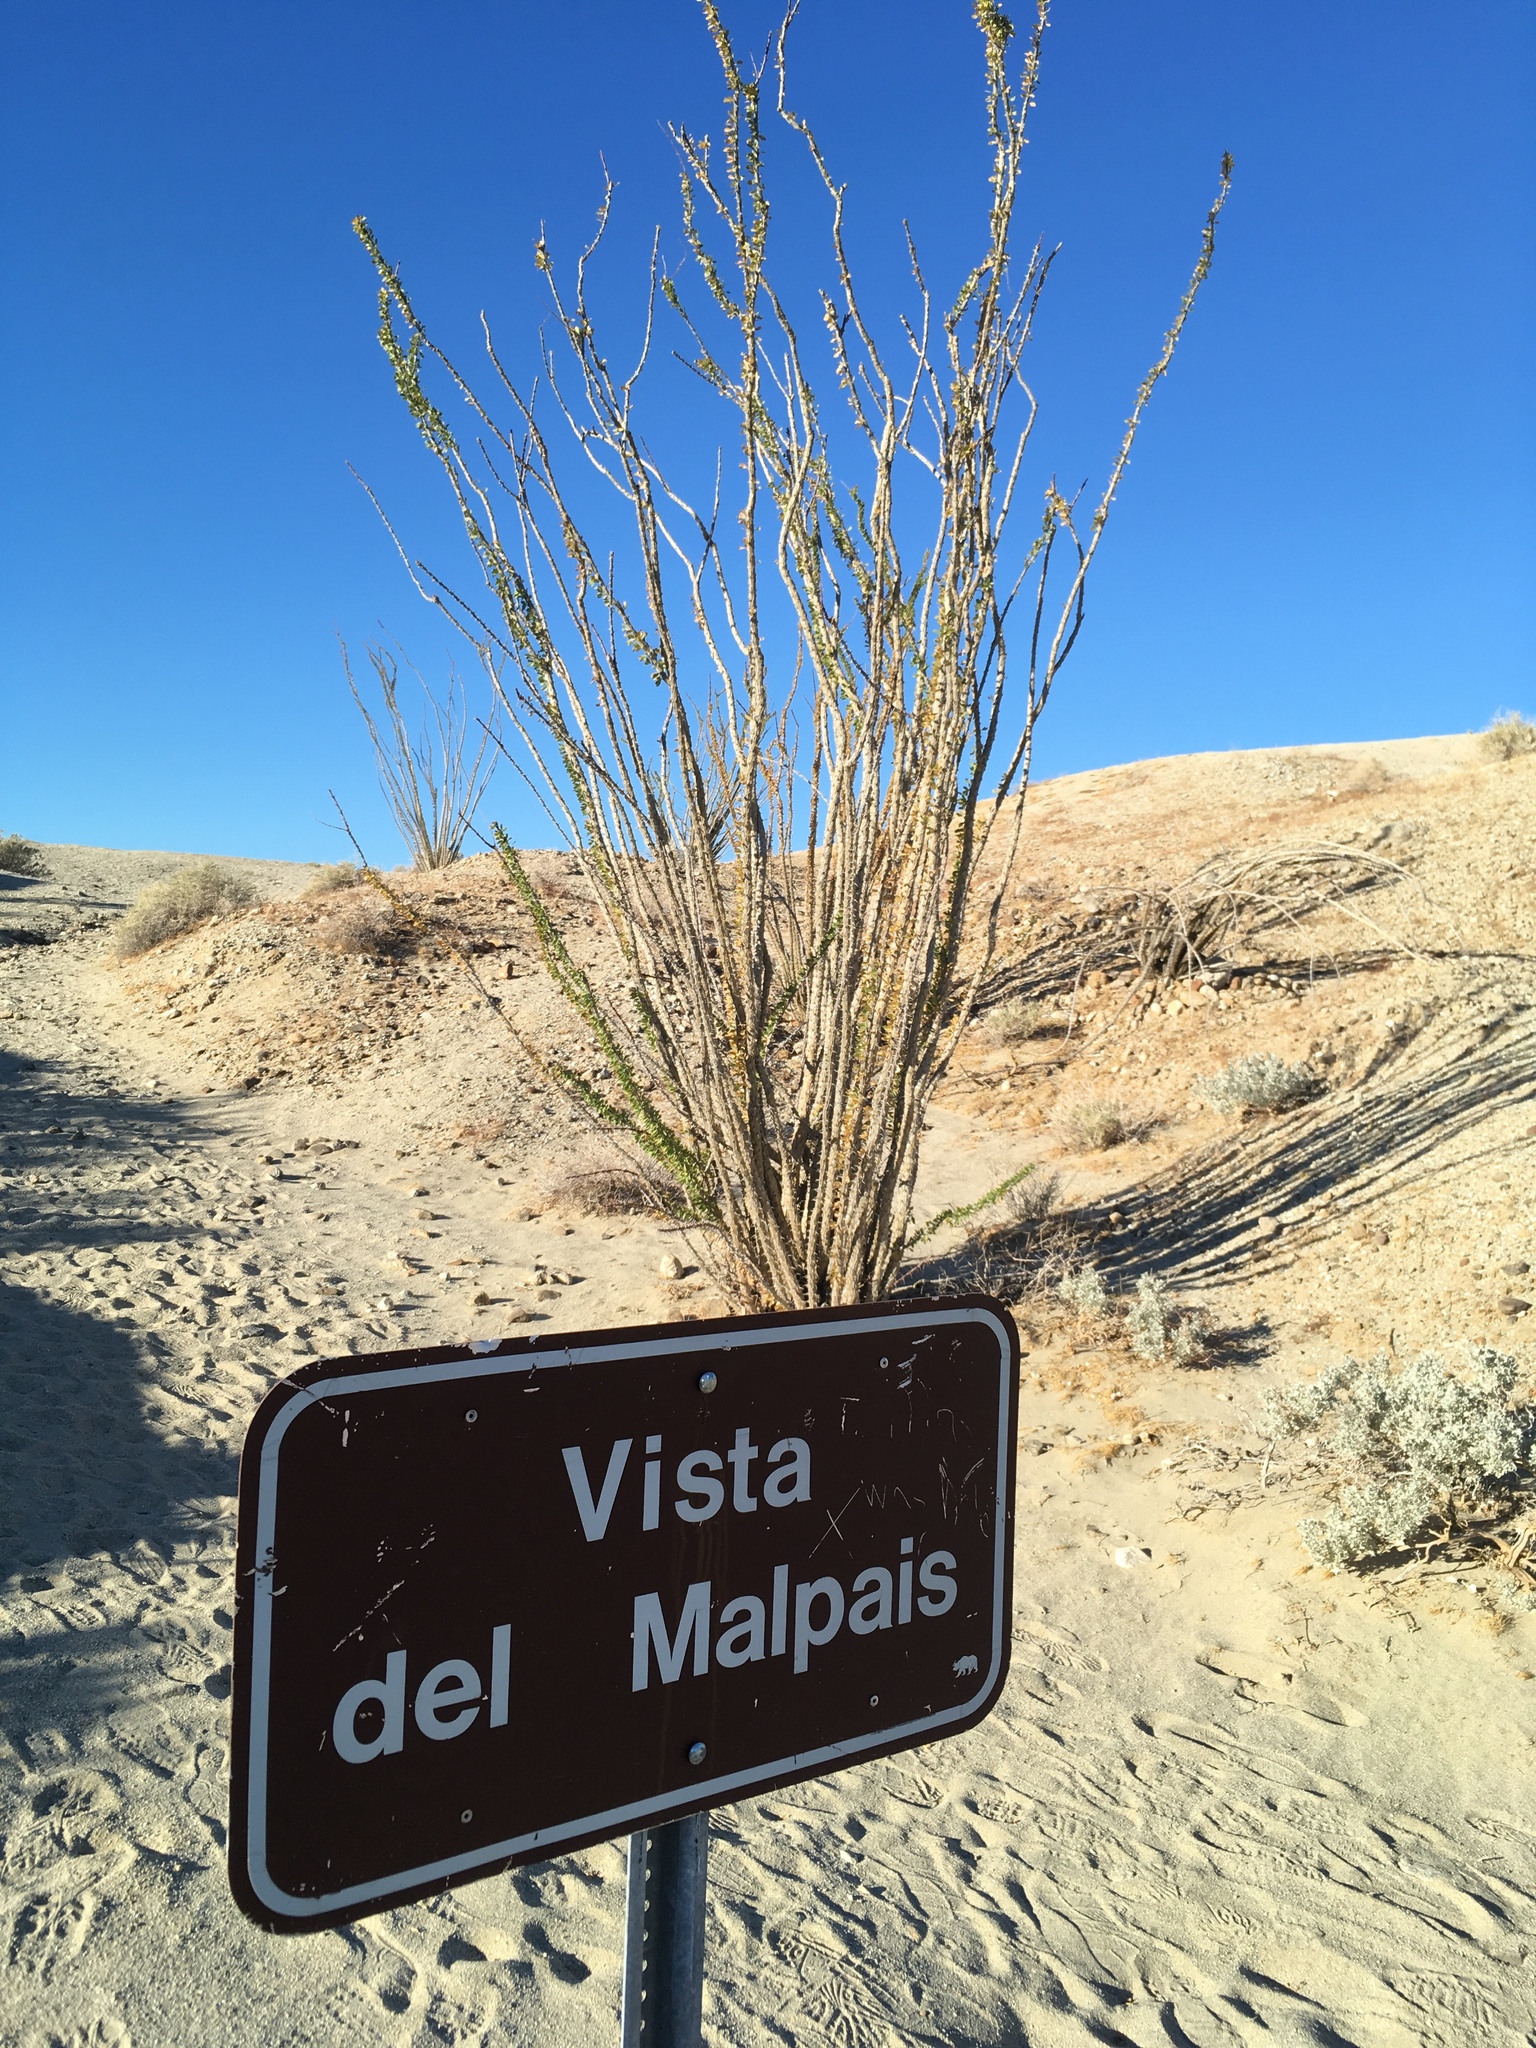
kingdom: Plantae
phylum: Tracheophyta
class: Magnoliopsida
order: Ericales
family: Fouquieriaceae
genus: Fouquieria
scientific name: Fouquieria splendens
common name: Vine-cactus
